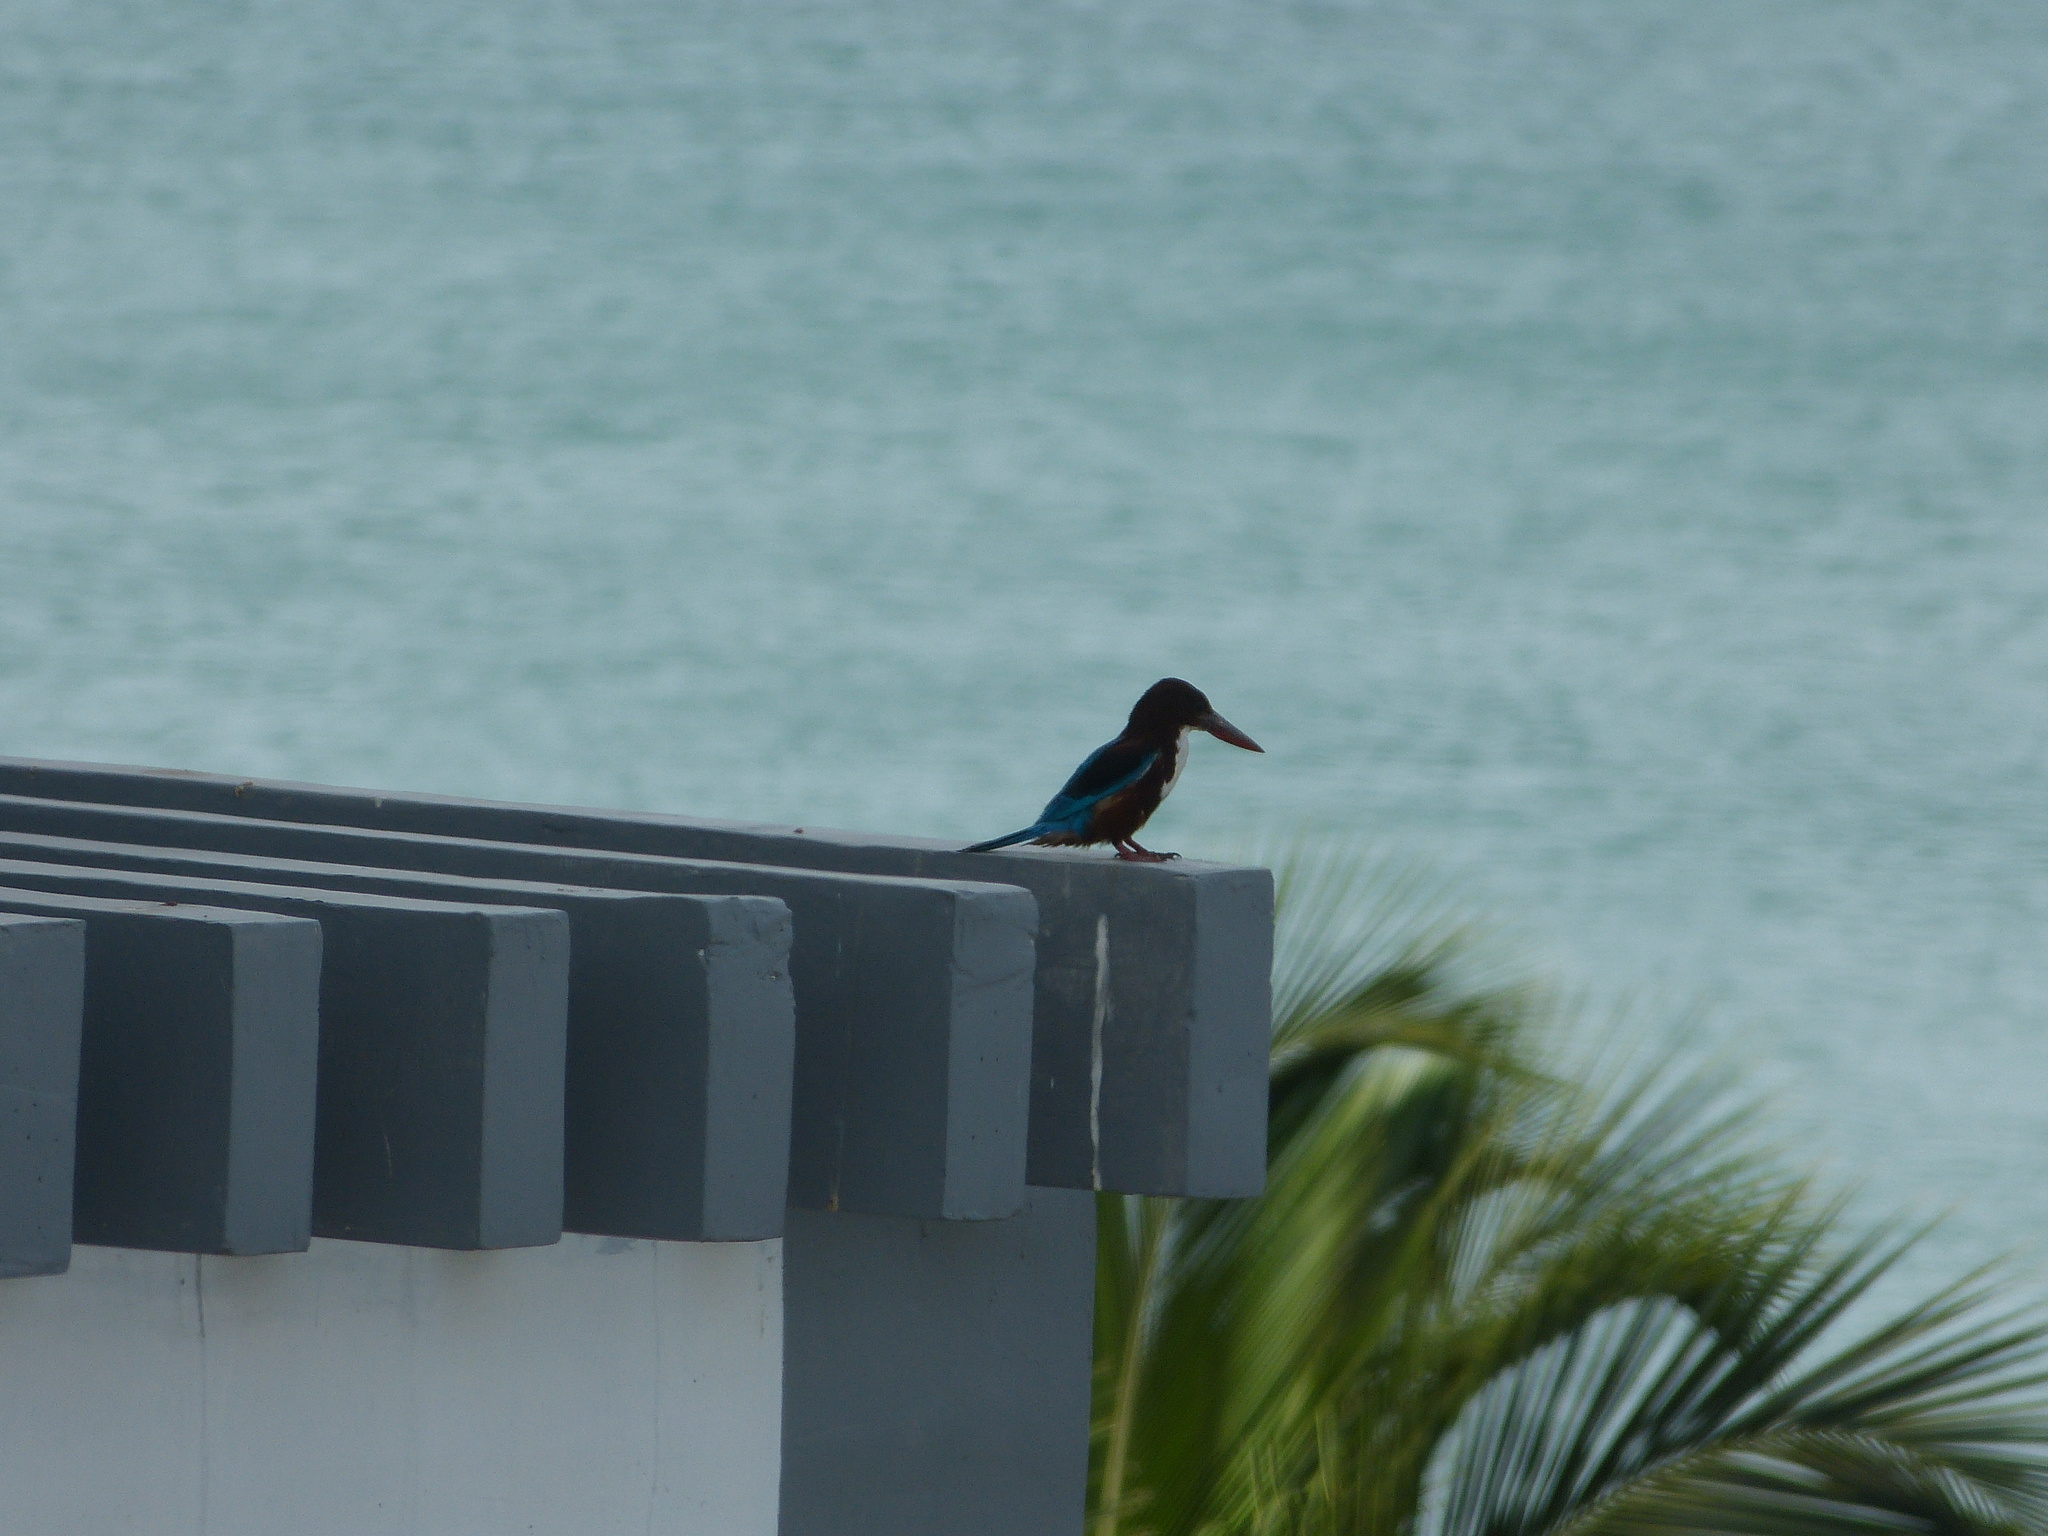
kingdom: Animalia
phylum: Chordata
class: Aves
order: Coraciiformes
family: Alcedinidae
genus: Halcyon
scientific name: Halcyon smyrnensis
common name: White-throated kingfisher
